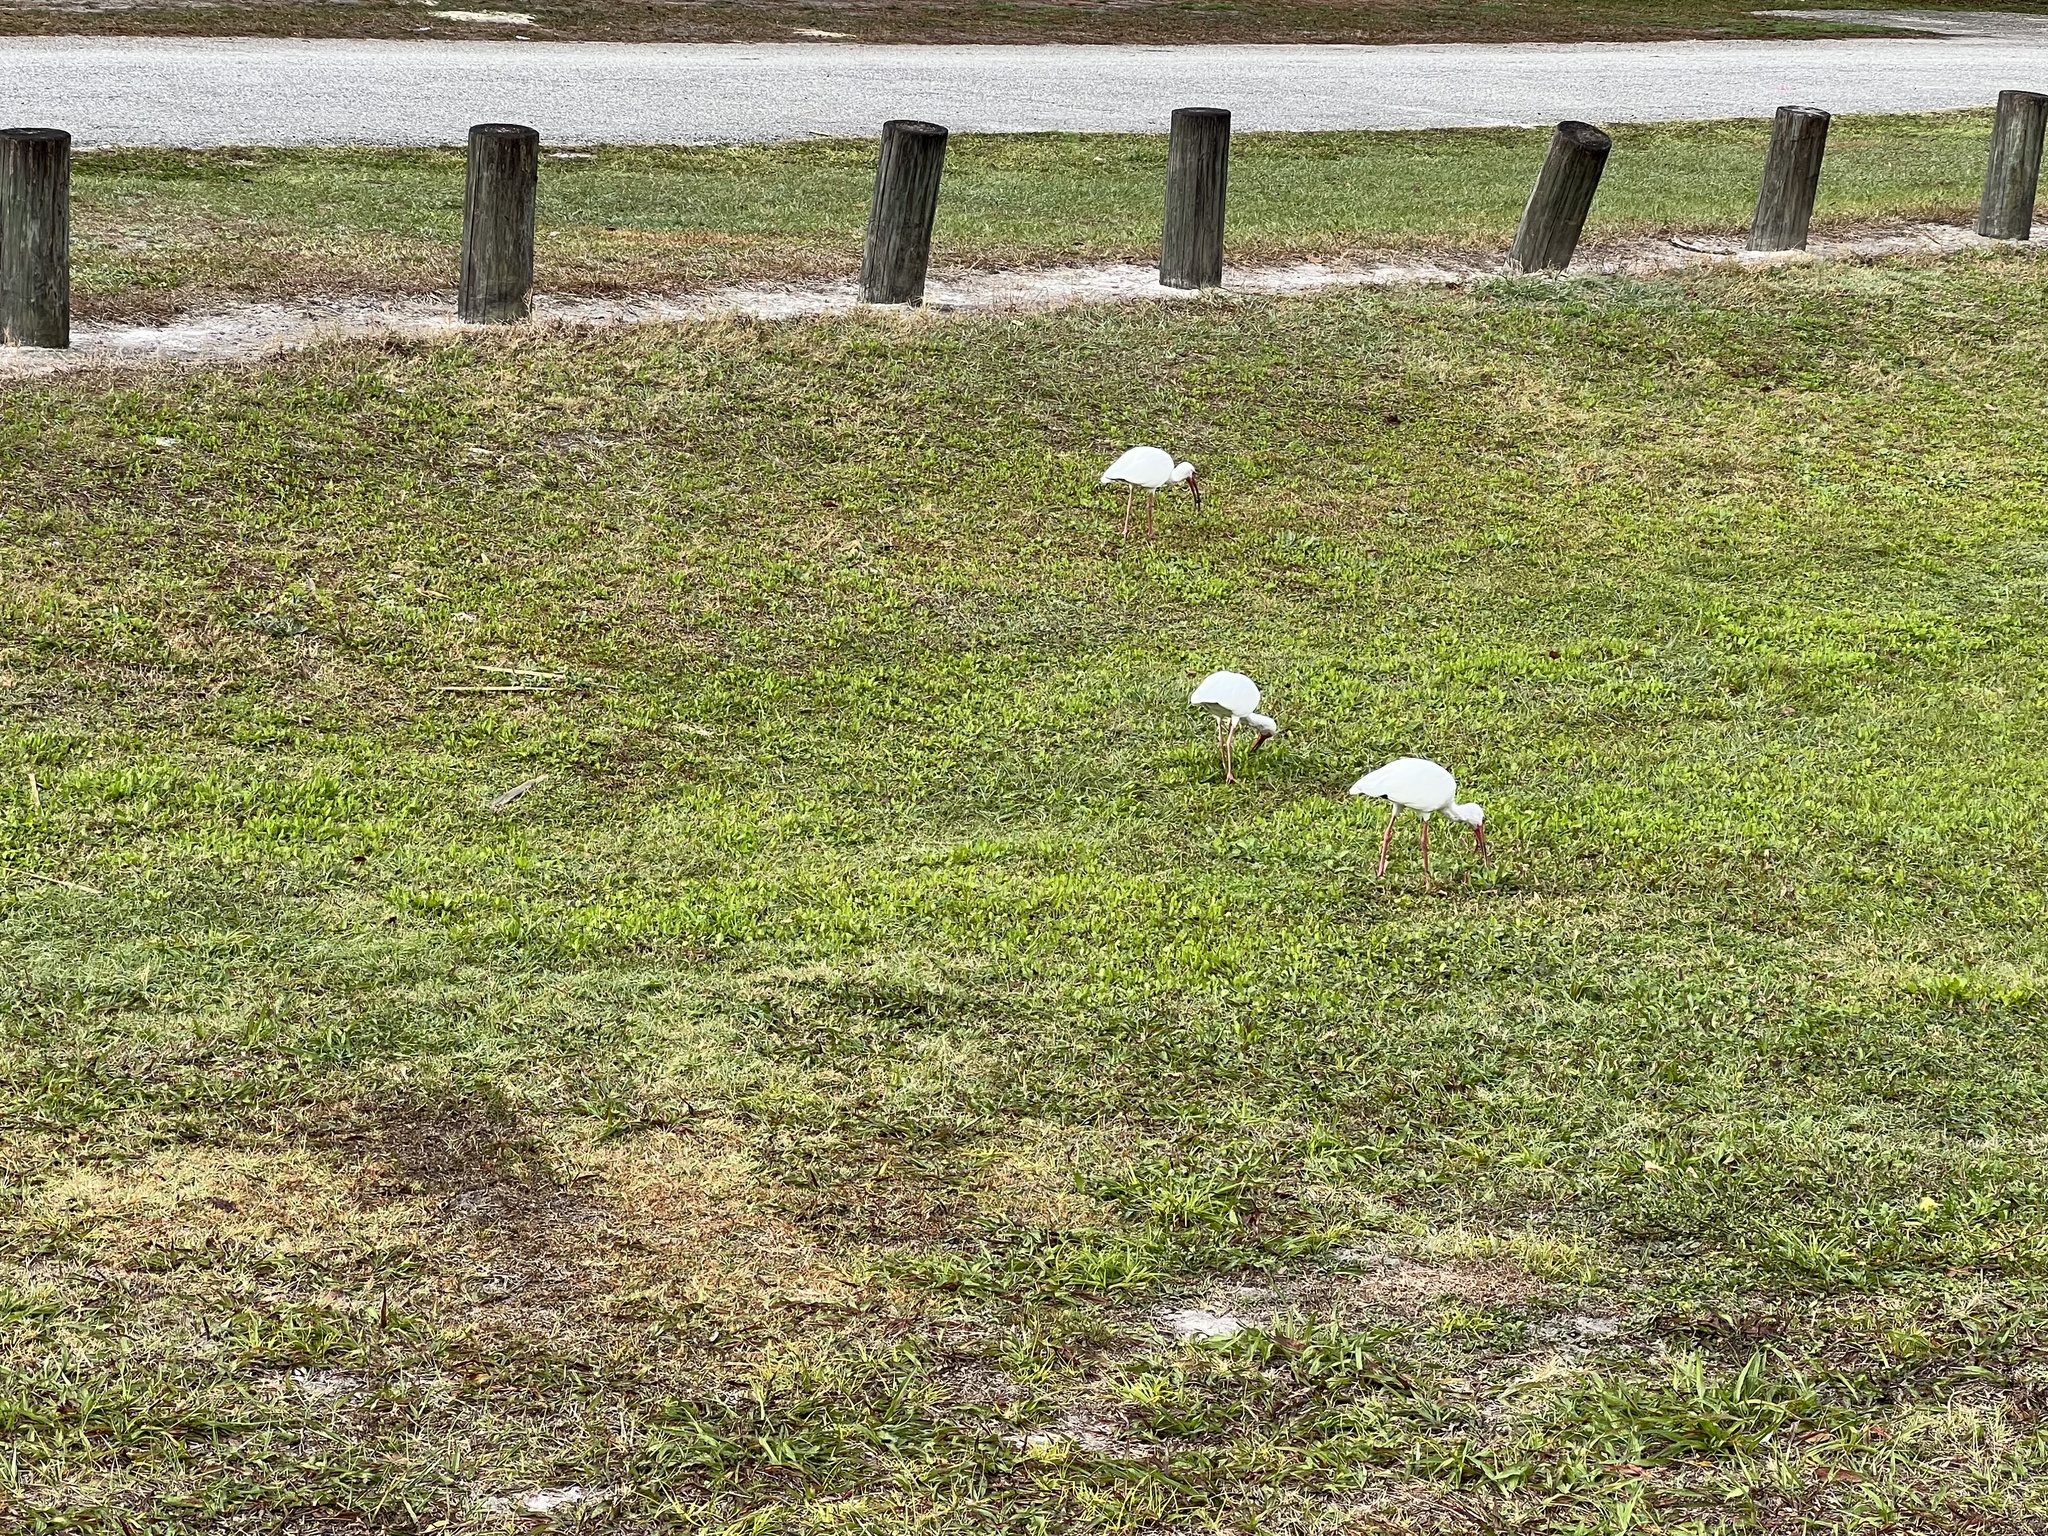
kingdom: Animalia
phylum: Chordata
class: Aves
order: Pelecaniformes
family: Threskiornithidae
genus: Eudocimus
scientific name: Eudocimus albus
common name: White ibis
